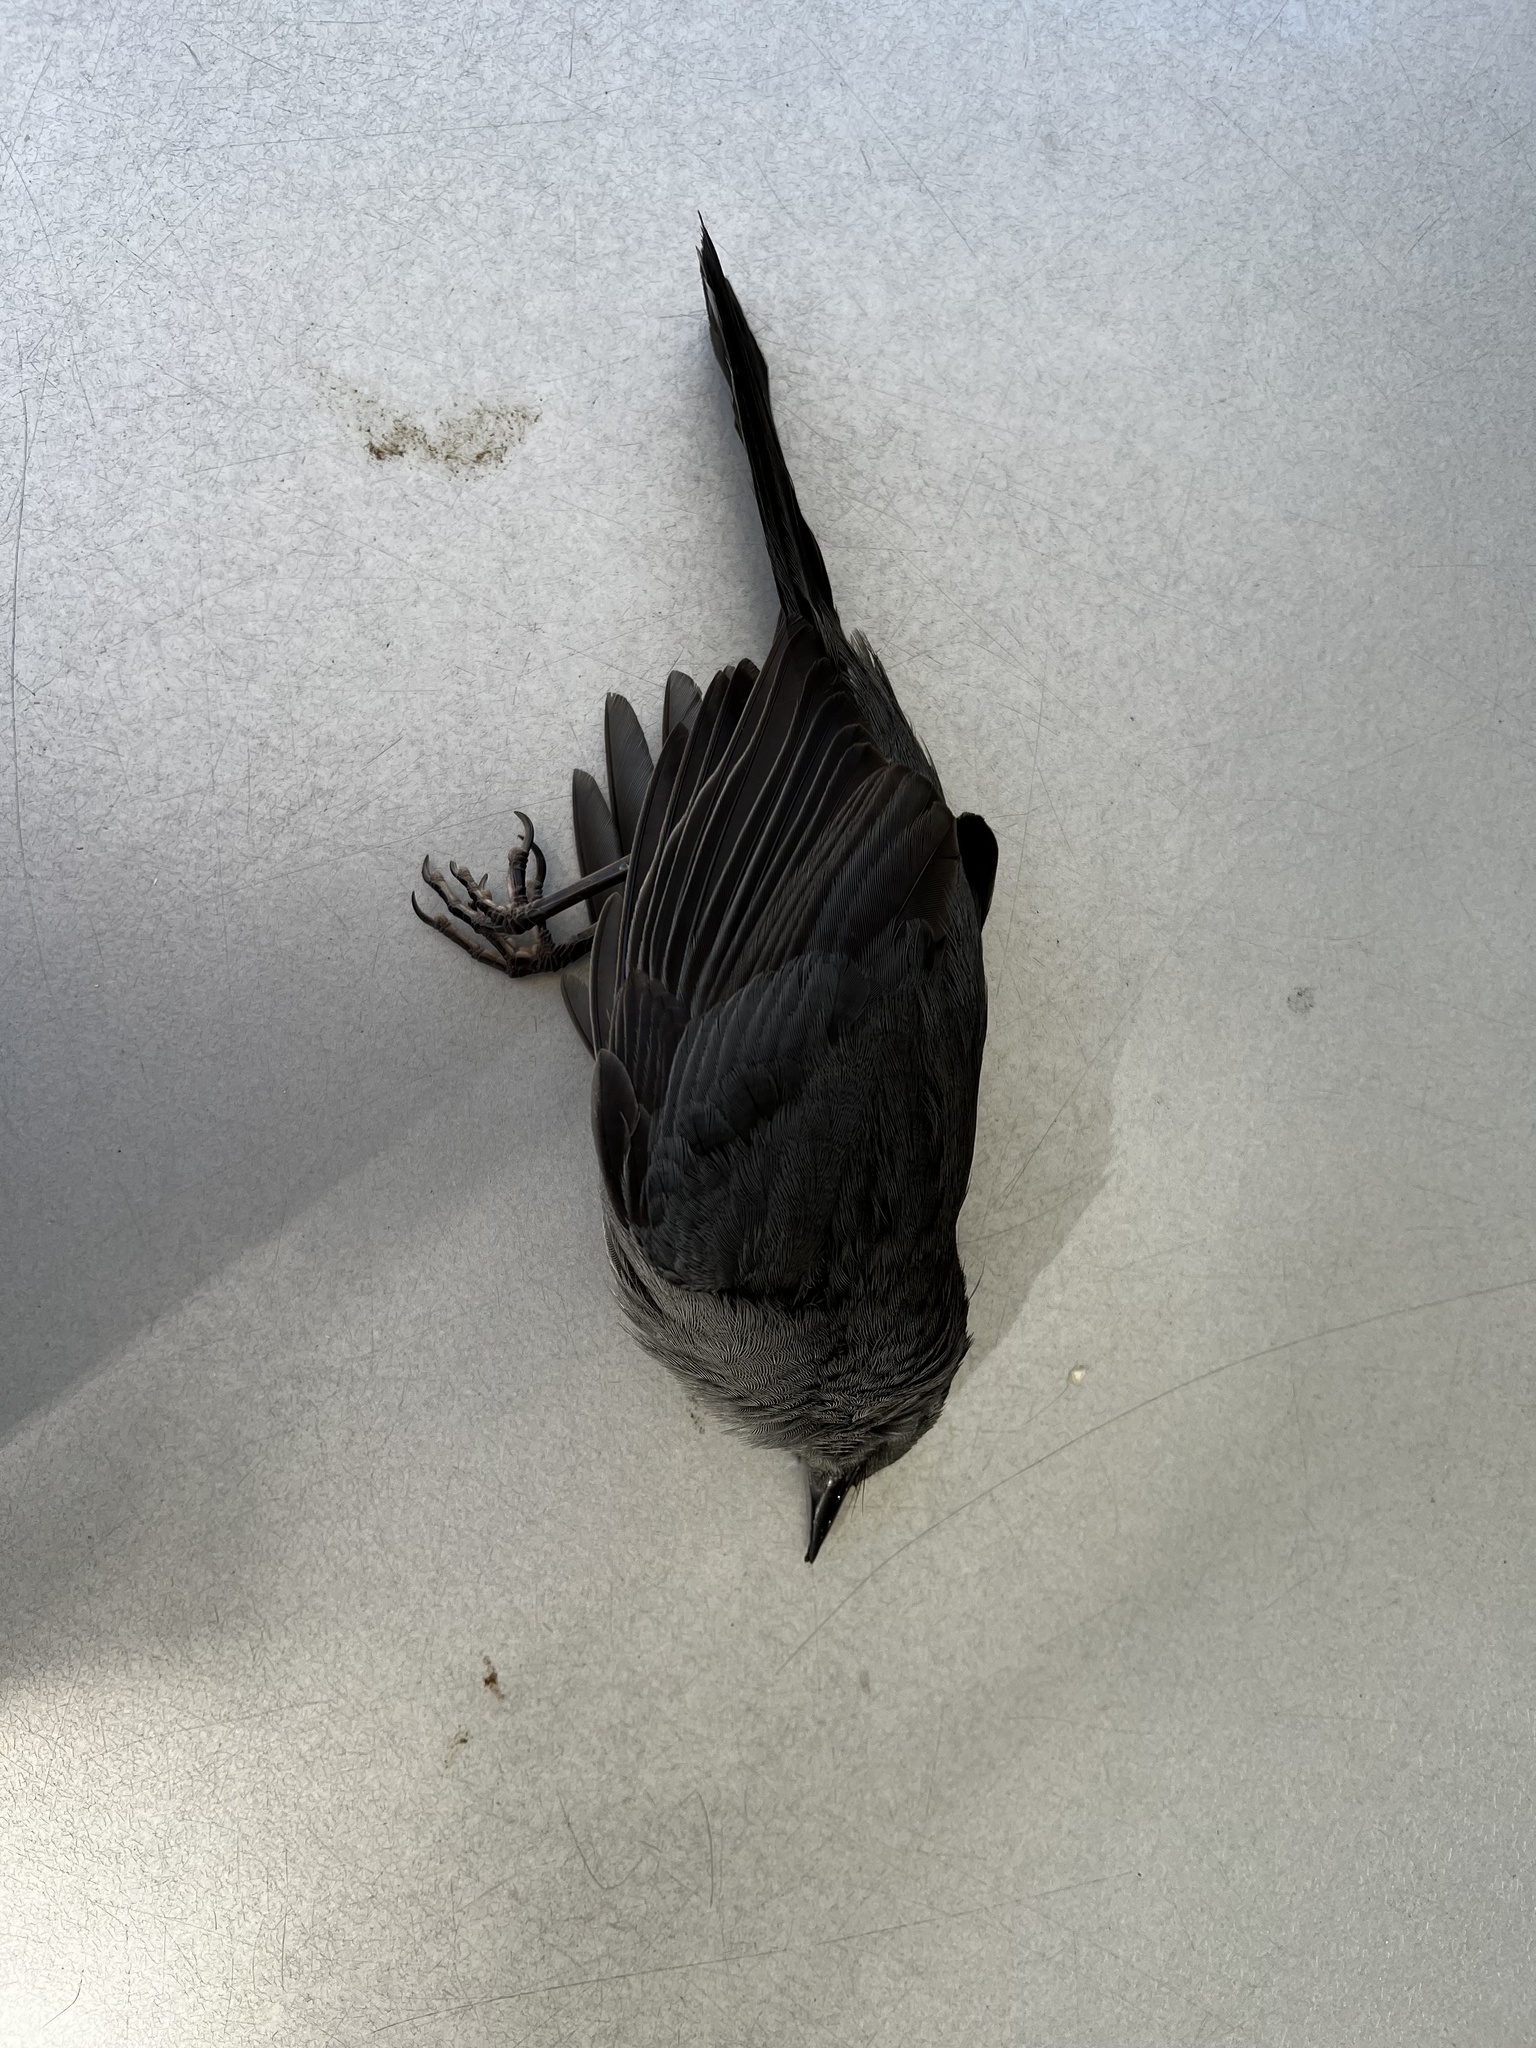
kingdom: Animalia
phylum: Chordata
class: Aves
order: Passeriformes
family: Mimidae
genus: Dumetella
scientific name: Dumetella carolinensis
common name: Gray catbird
